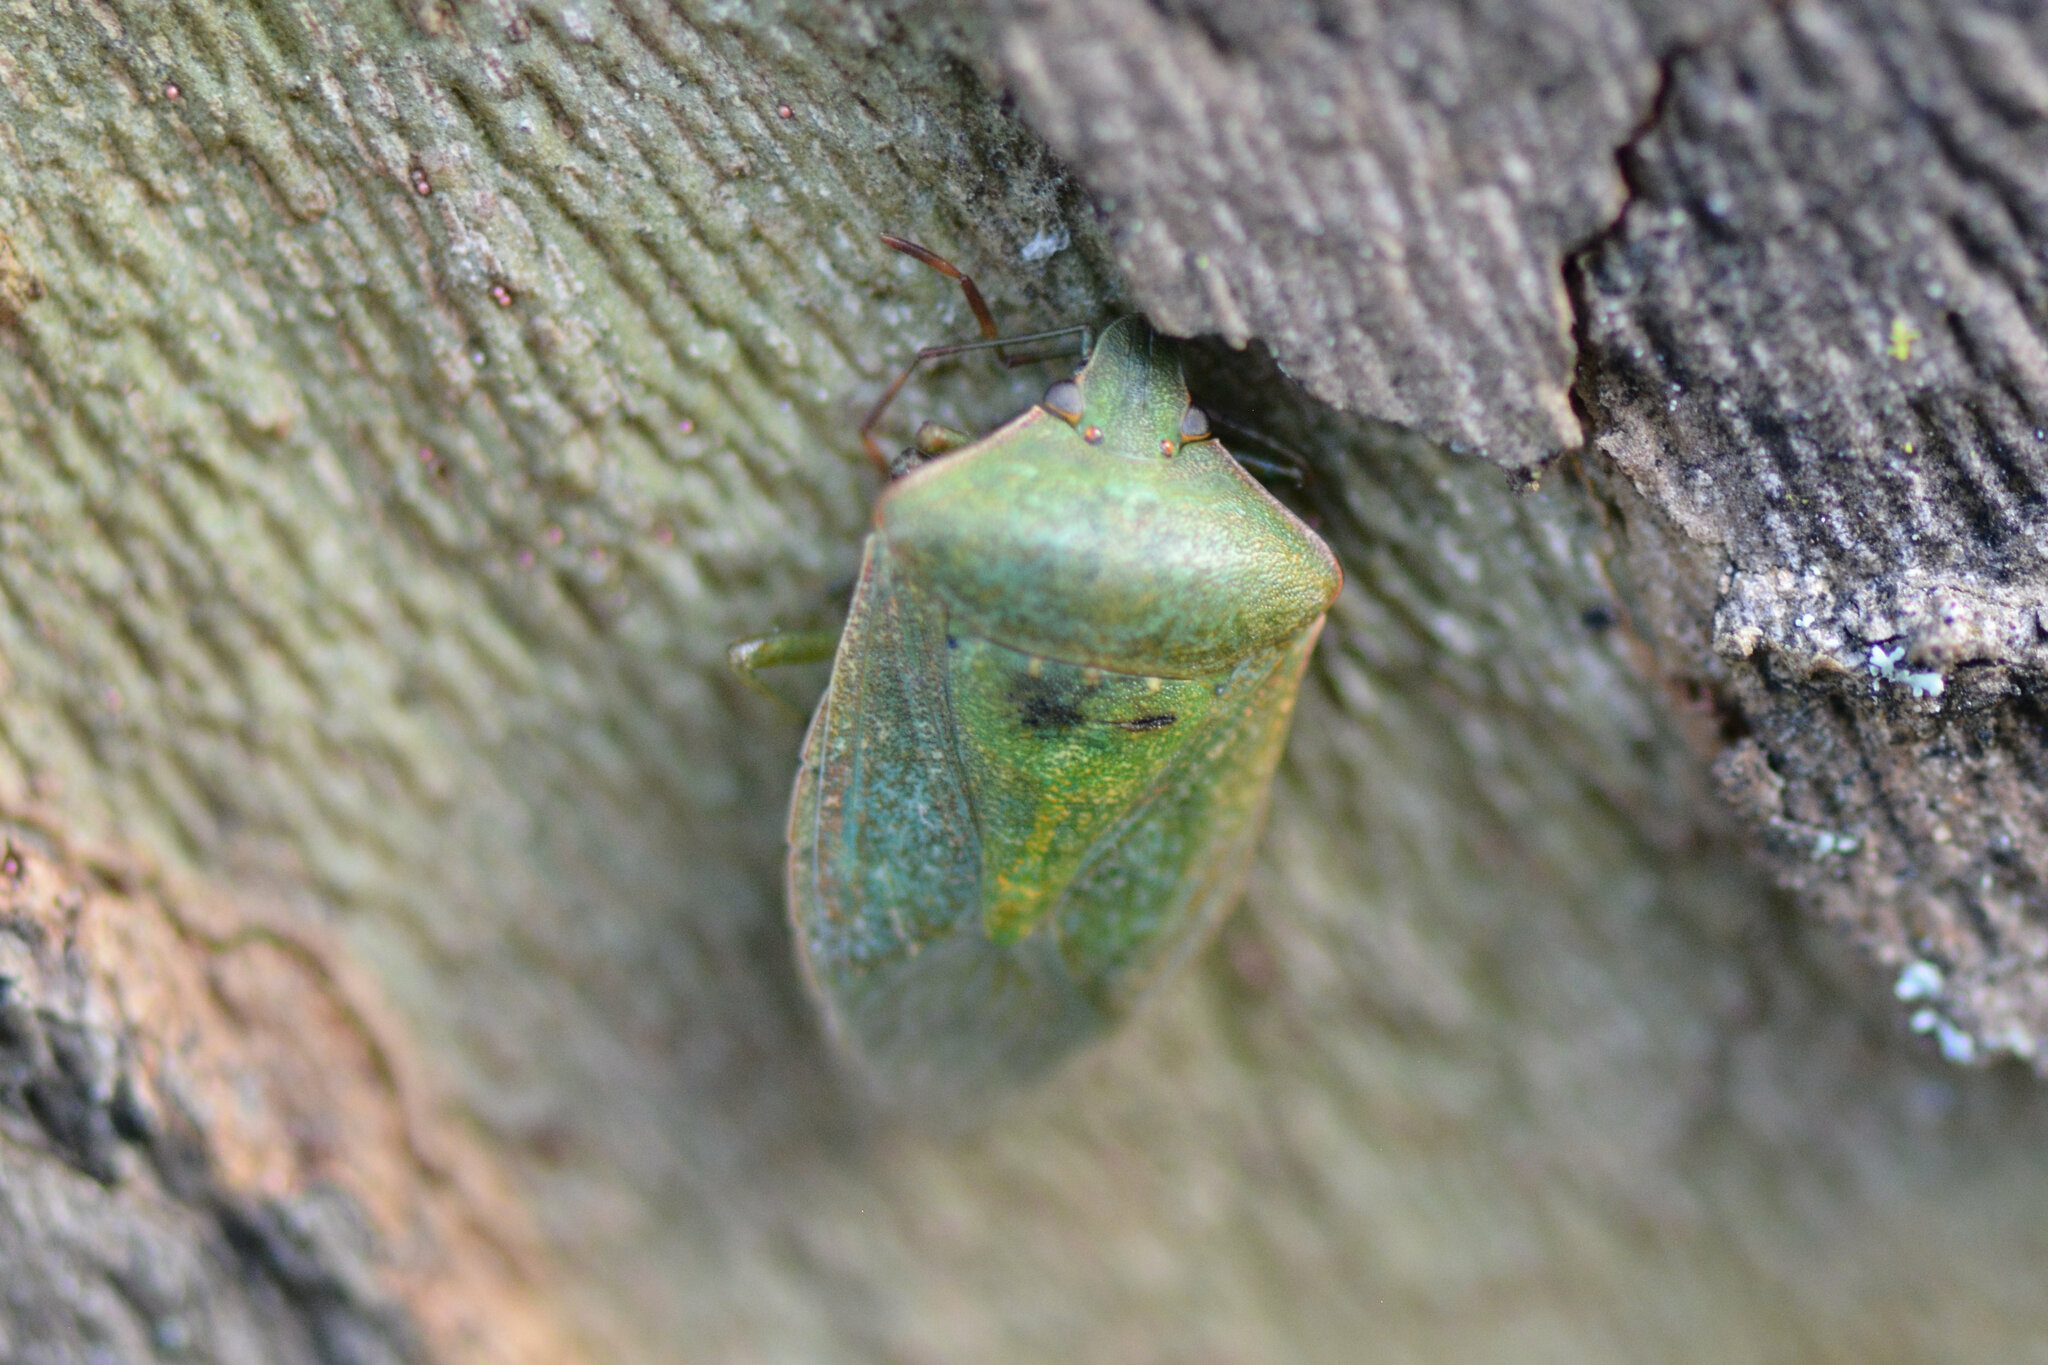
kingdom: Animalia
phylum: Arthropoda
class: Insecta
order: Hemiptera
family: Pentatomidae
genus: Nezara
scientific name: Nezara viridula
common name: Southern green stink bug
